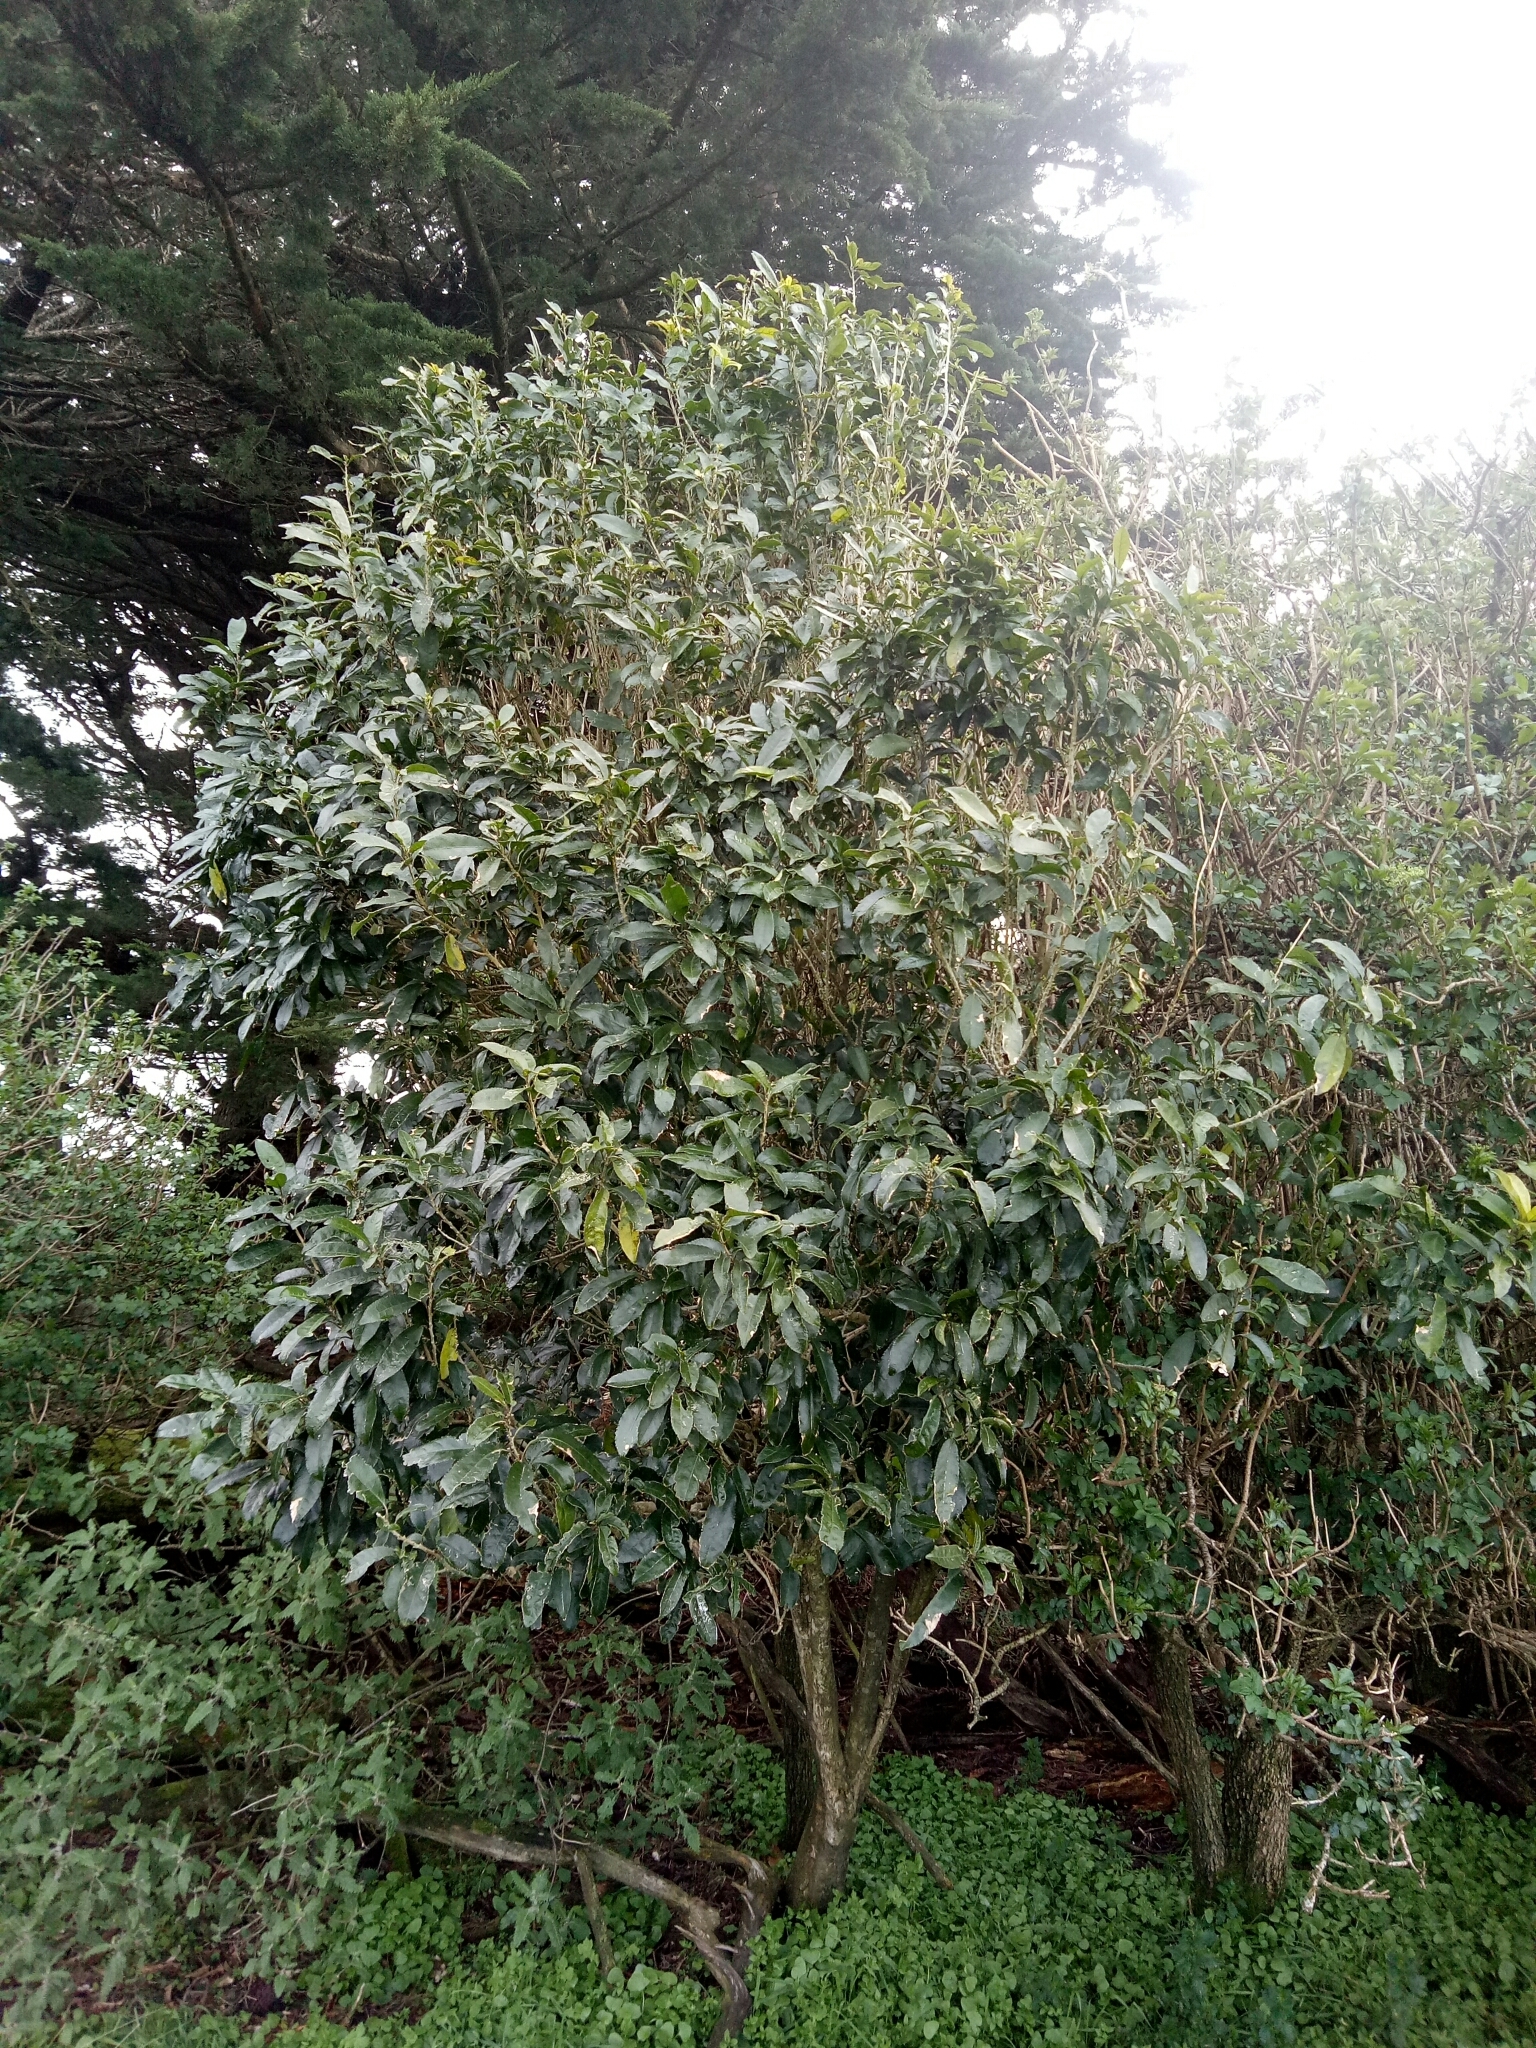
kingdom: Plantae
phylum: Tracheophyta
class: Magnoliopsida
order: Malpighiales
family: Violaceae
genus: Melicytus
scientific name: Melicytus ramiflorus
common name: Mahoe
